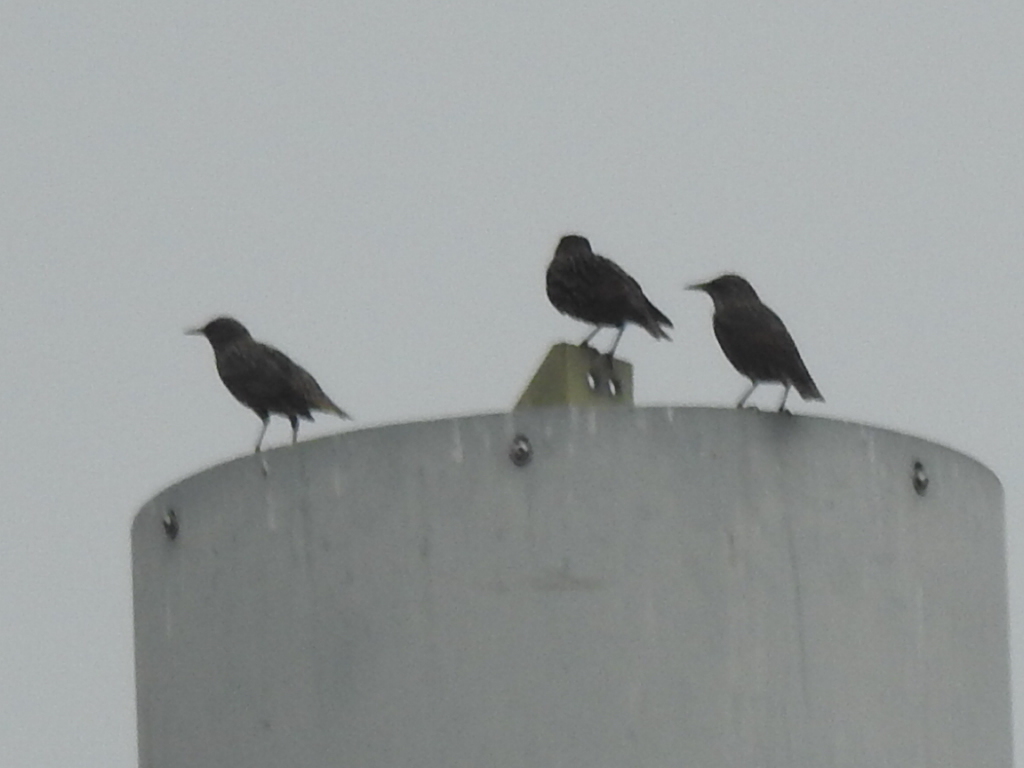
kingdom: Animalia
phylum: Chordata
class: Aves
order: Passeriformes
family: Sturnidae
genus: Sturnus
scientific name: Sturnus vulgaris
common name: Common starling
